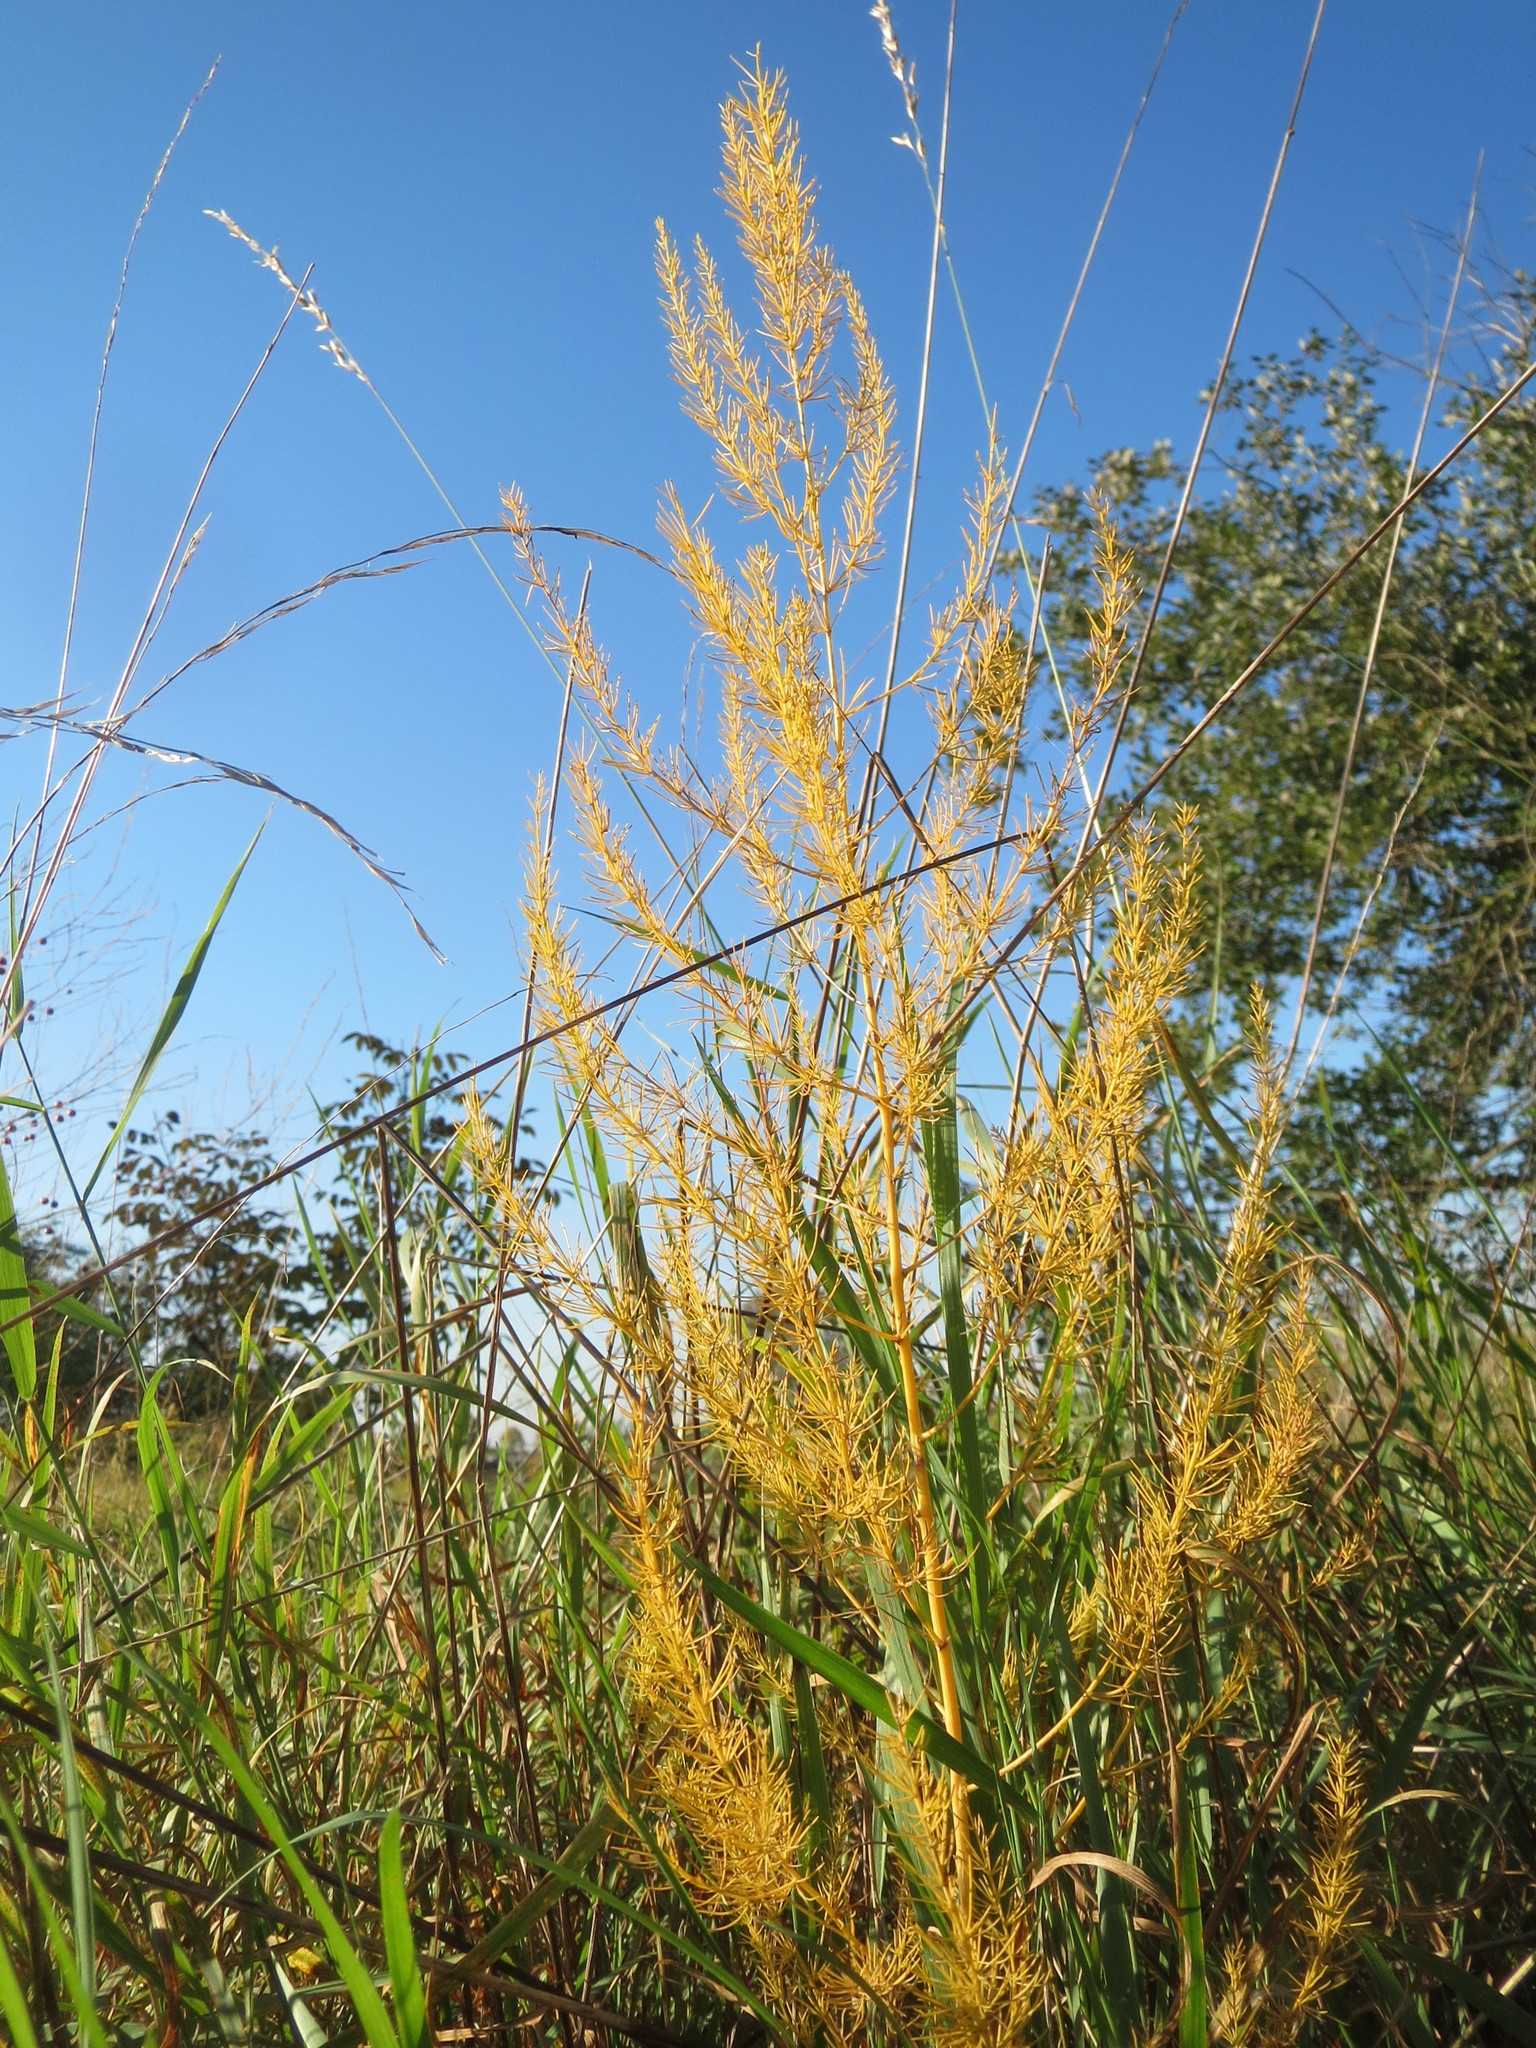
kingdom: Plantae
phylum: Tracheophyta
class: Liliopsida
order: Asparagales
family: Asparagaceae
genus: Asparagus
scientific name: Asparagus officinalis
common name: Garden asparagus
